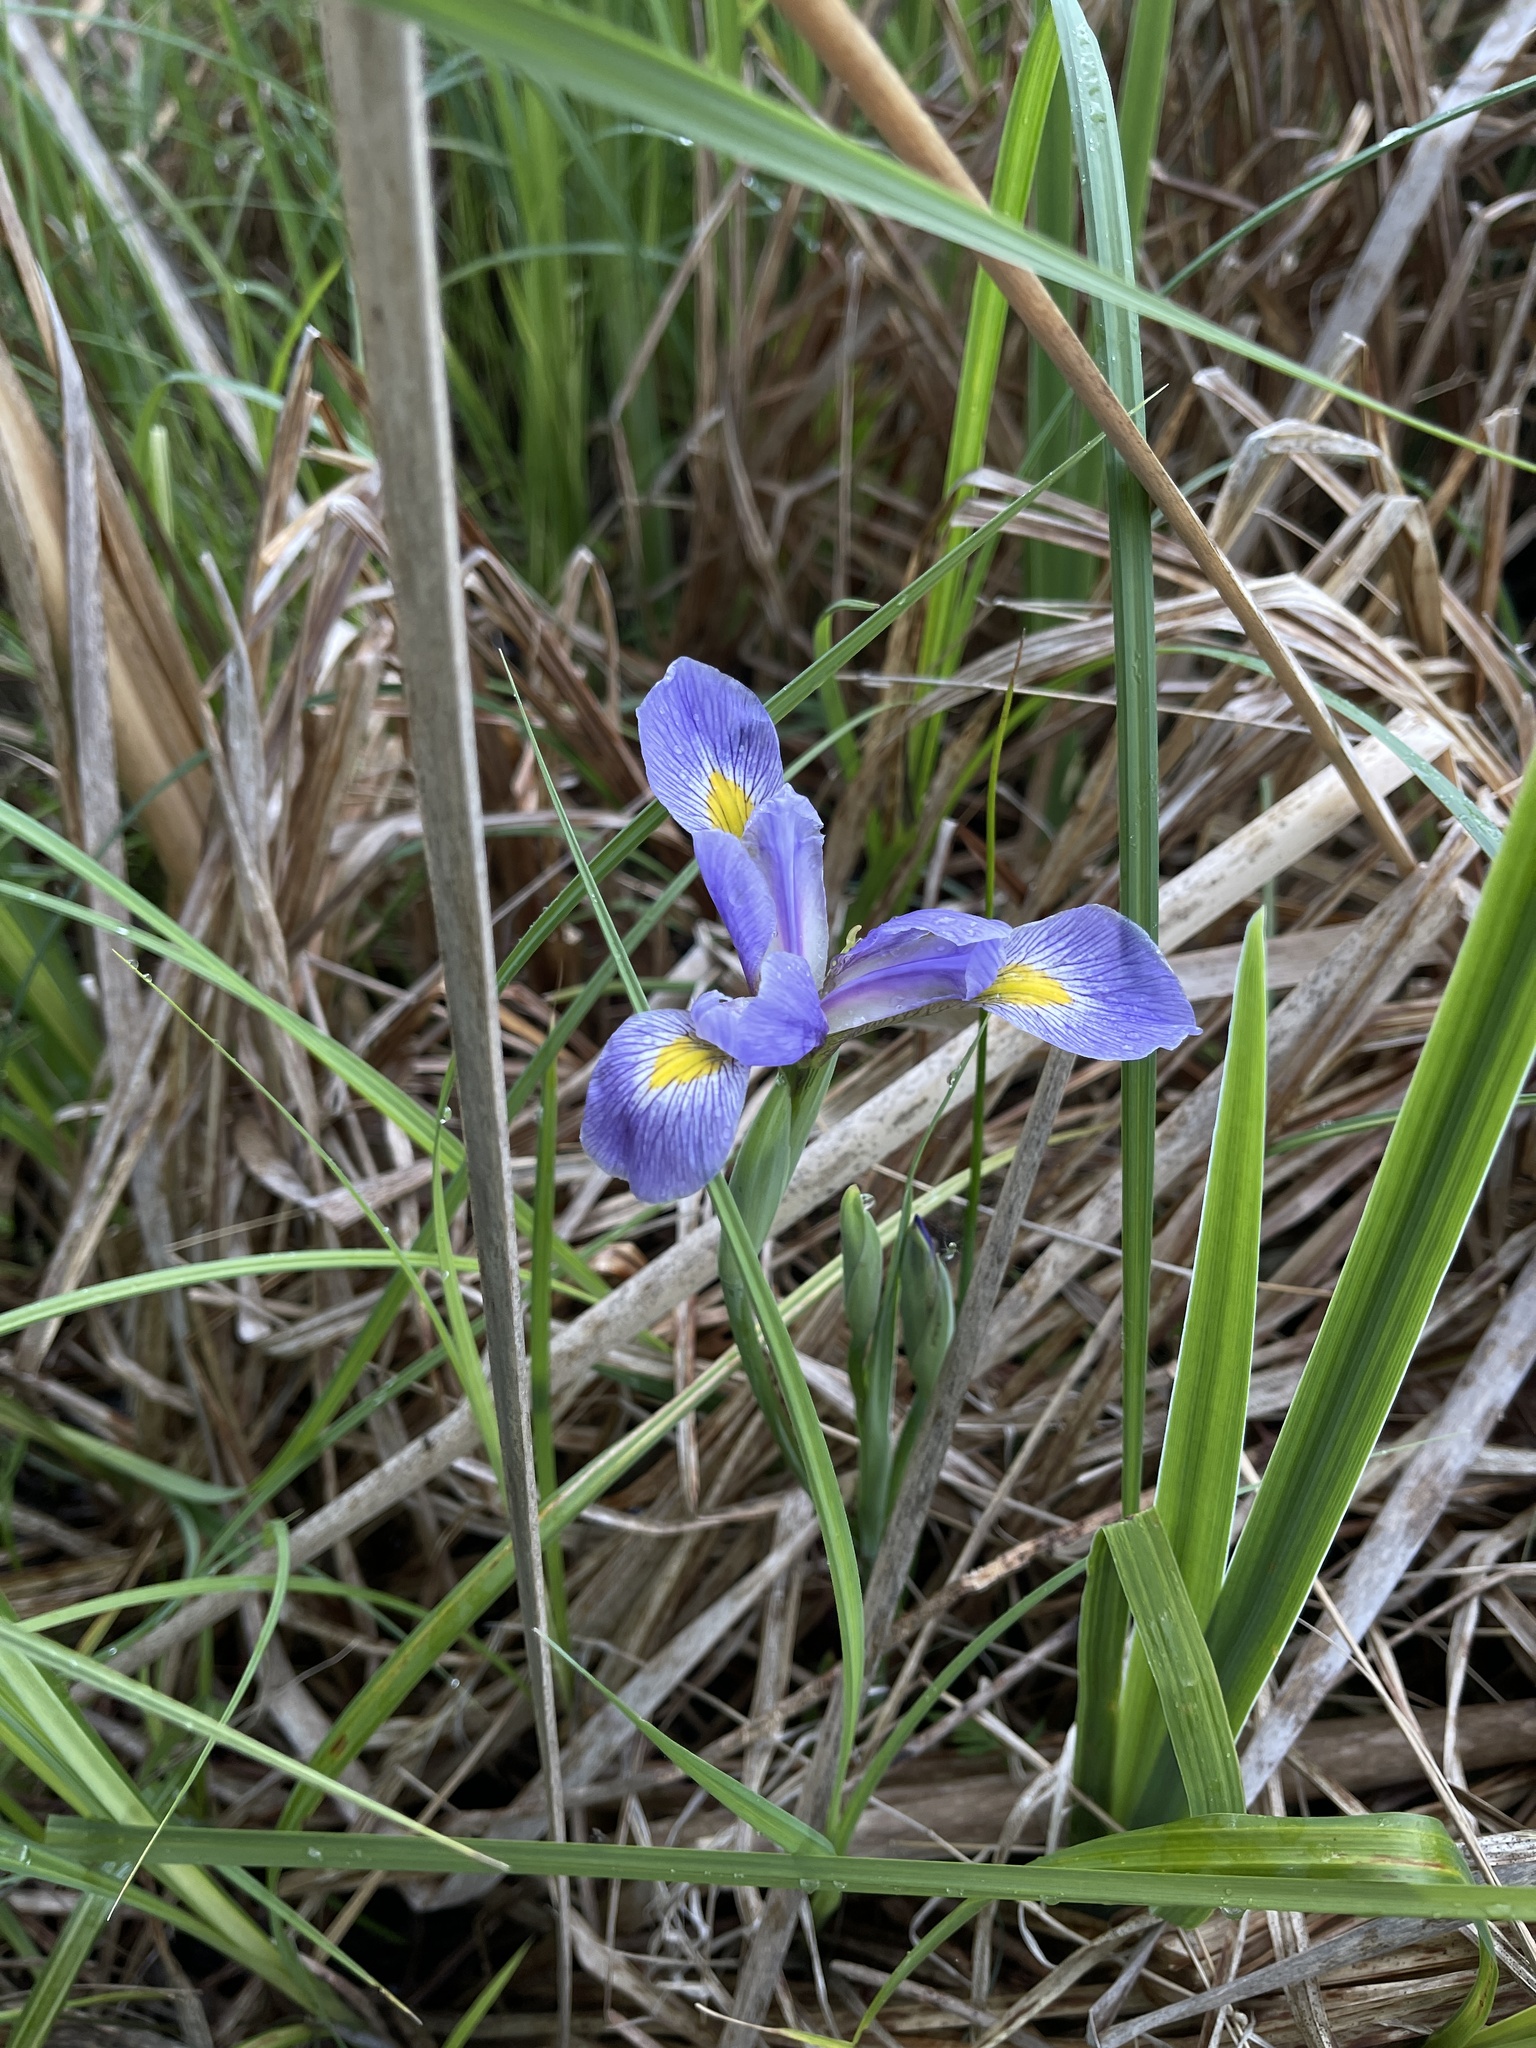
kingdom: Plantae
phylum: Tracheophyta
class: Liliopsida
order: Asparagales
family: Iridaceae
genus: Iris
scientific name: Iris virginica
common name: Southern blue flag
